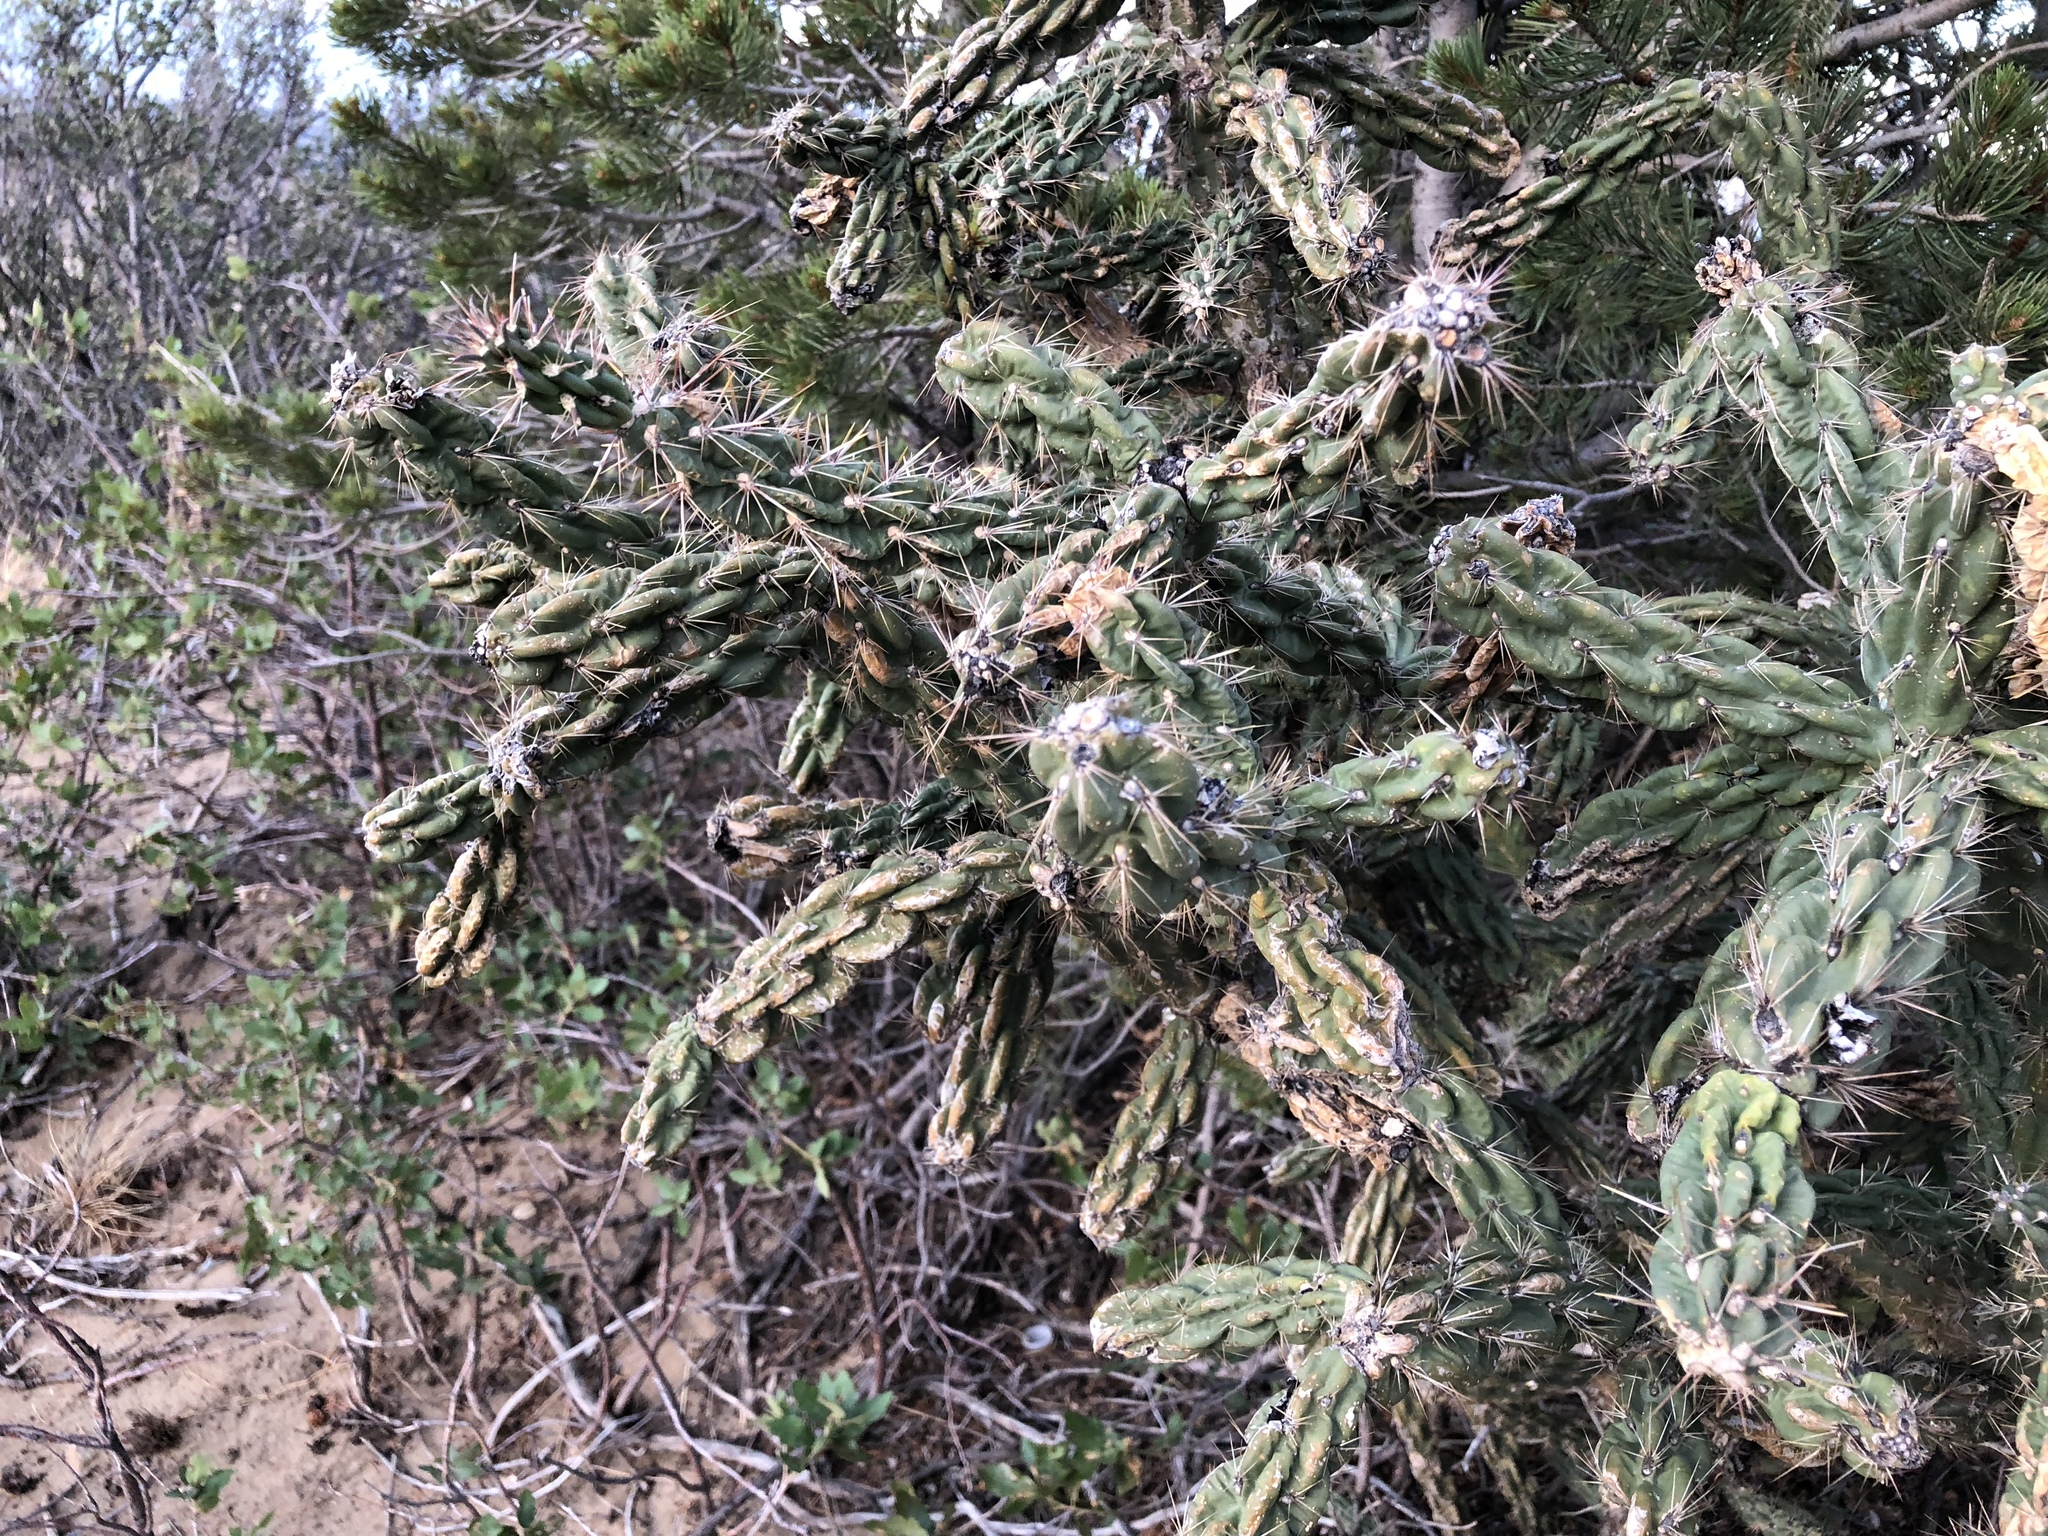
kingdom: Plantae
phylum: Tracheophyta
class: Magnoliopsida
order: Caryophyllales
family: Cactaceae
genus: Cylindropuntia
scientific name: Cylindropuntia imbricata
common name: Candelabrum cactus
